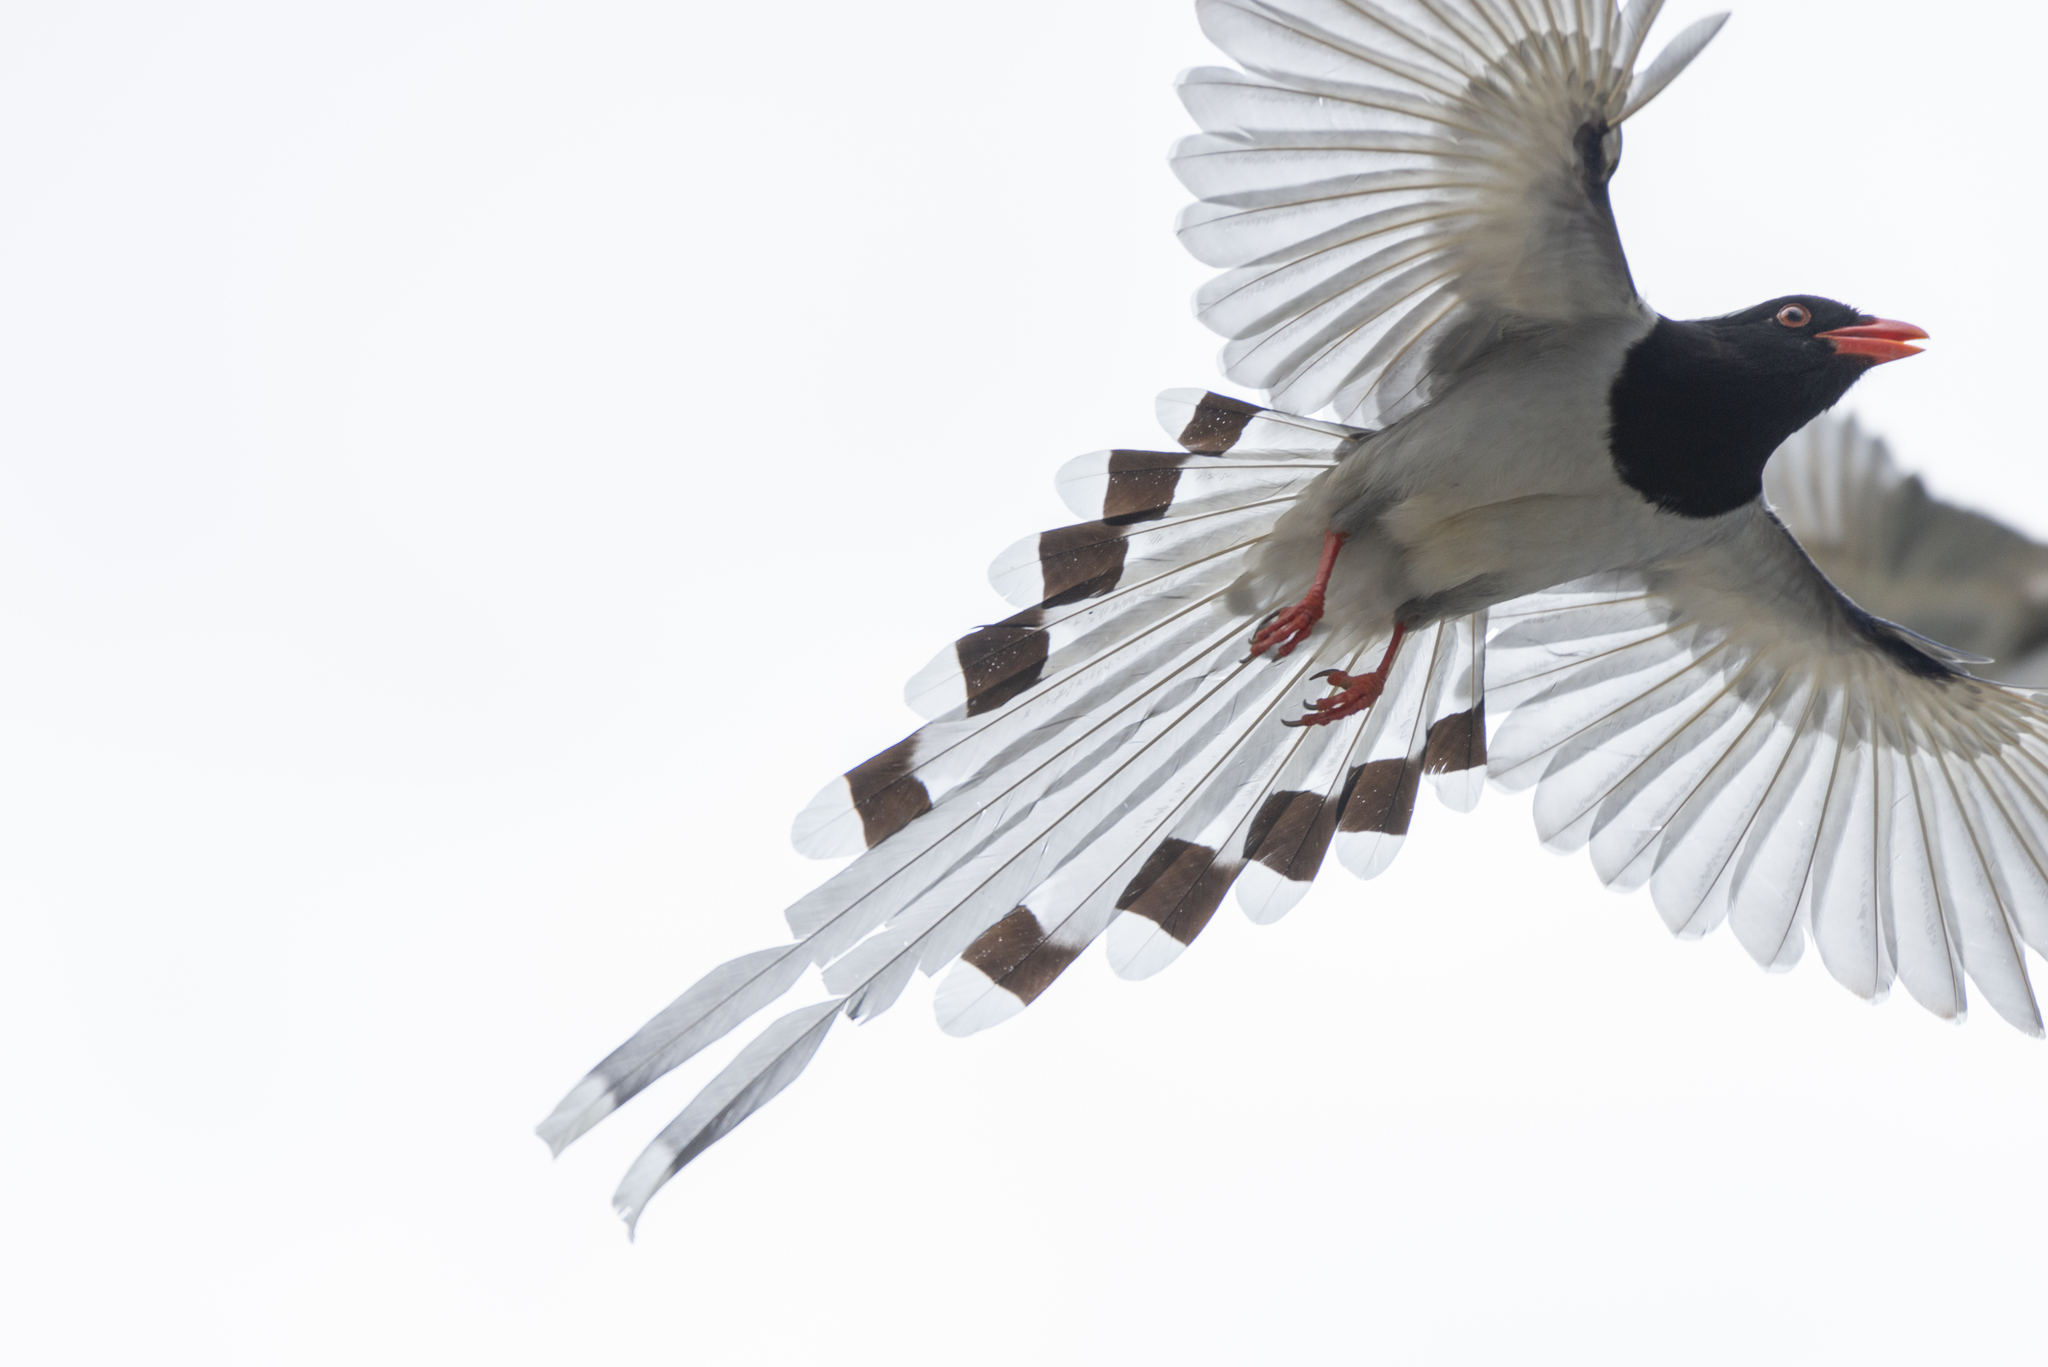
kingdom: Animalia
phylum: Chordata
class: Aves
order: Passeriformes
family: Corvidae
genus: Urocissa
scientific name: Urocissa erythroryncha
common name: Red-billed blue magpie
